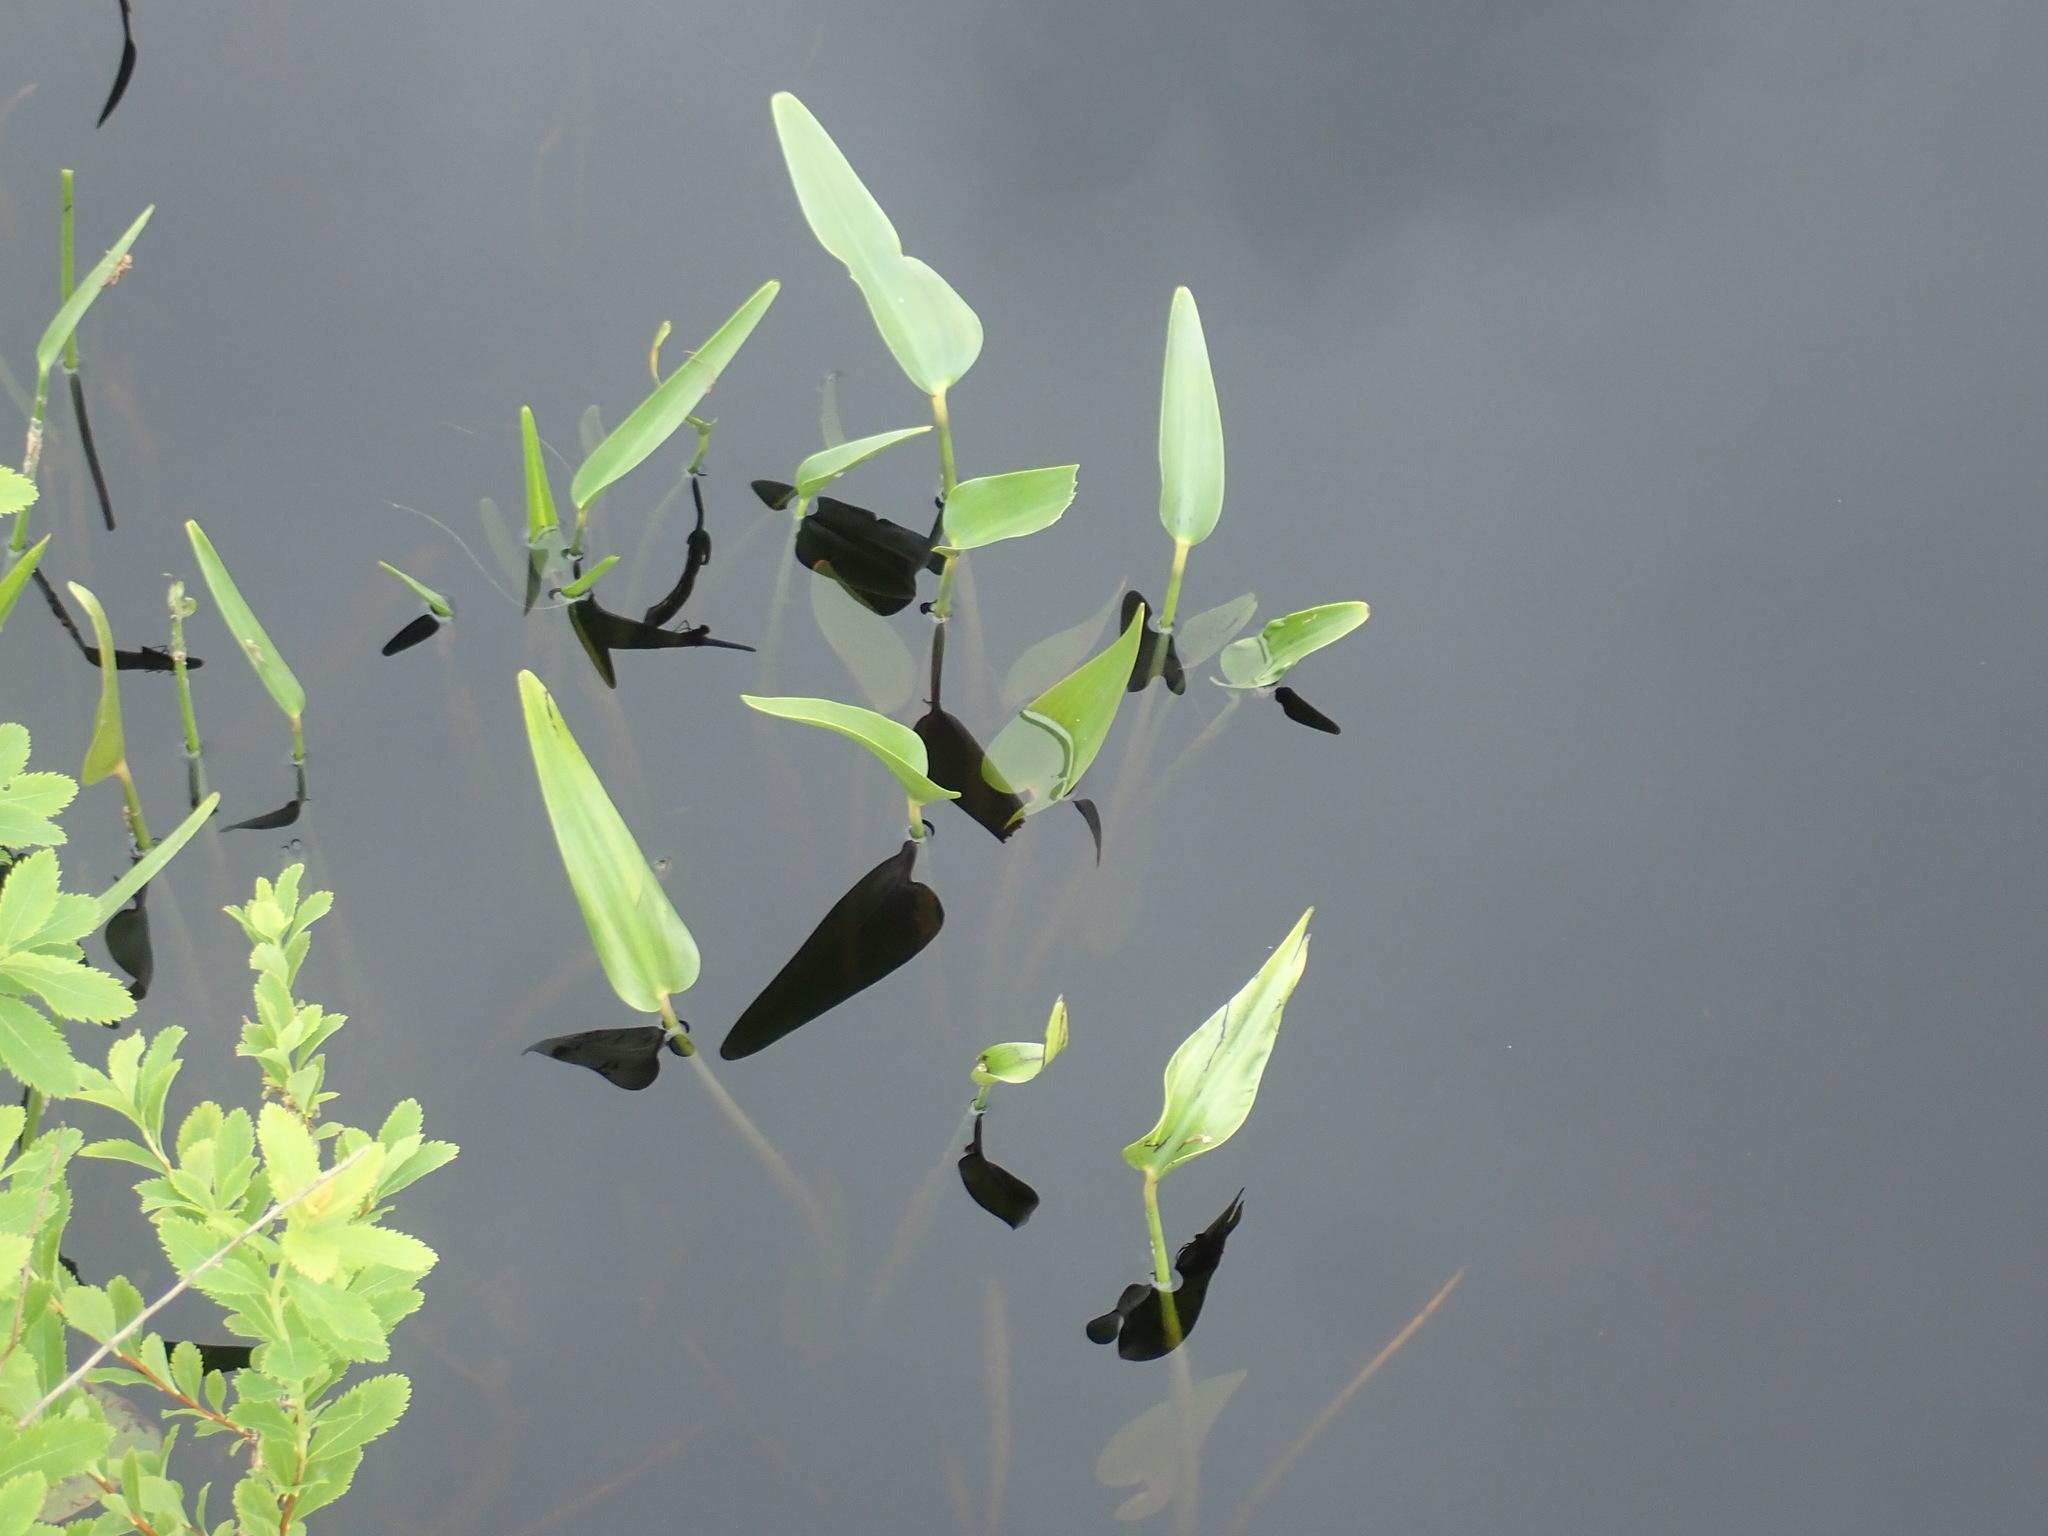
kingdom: Plantae
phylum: Tracheophyta
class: Liliopsida
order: Commelinales
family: Pontederiaceae
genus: Pontederia
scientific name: Pontederia cordata
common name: Pickerelweed
